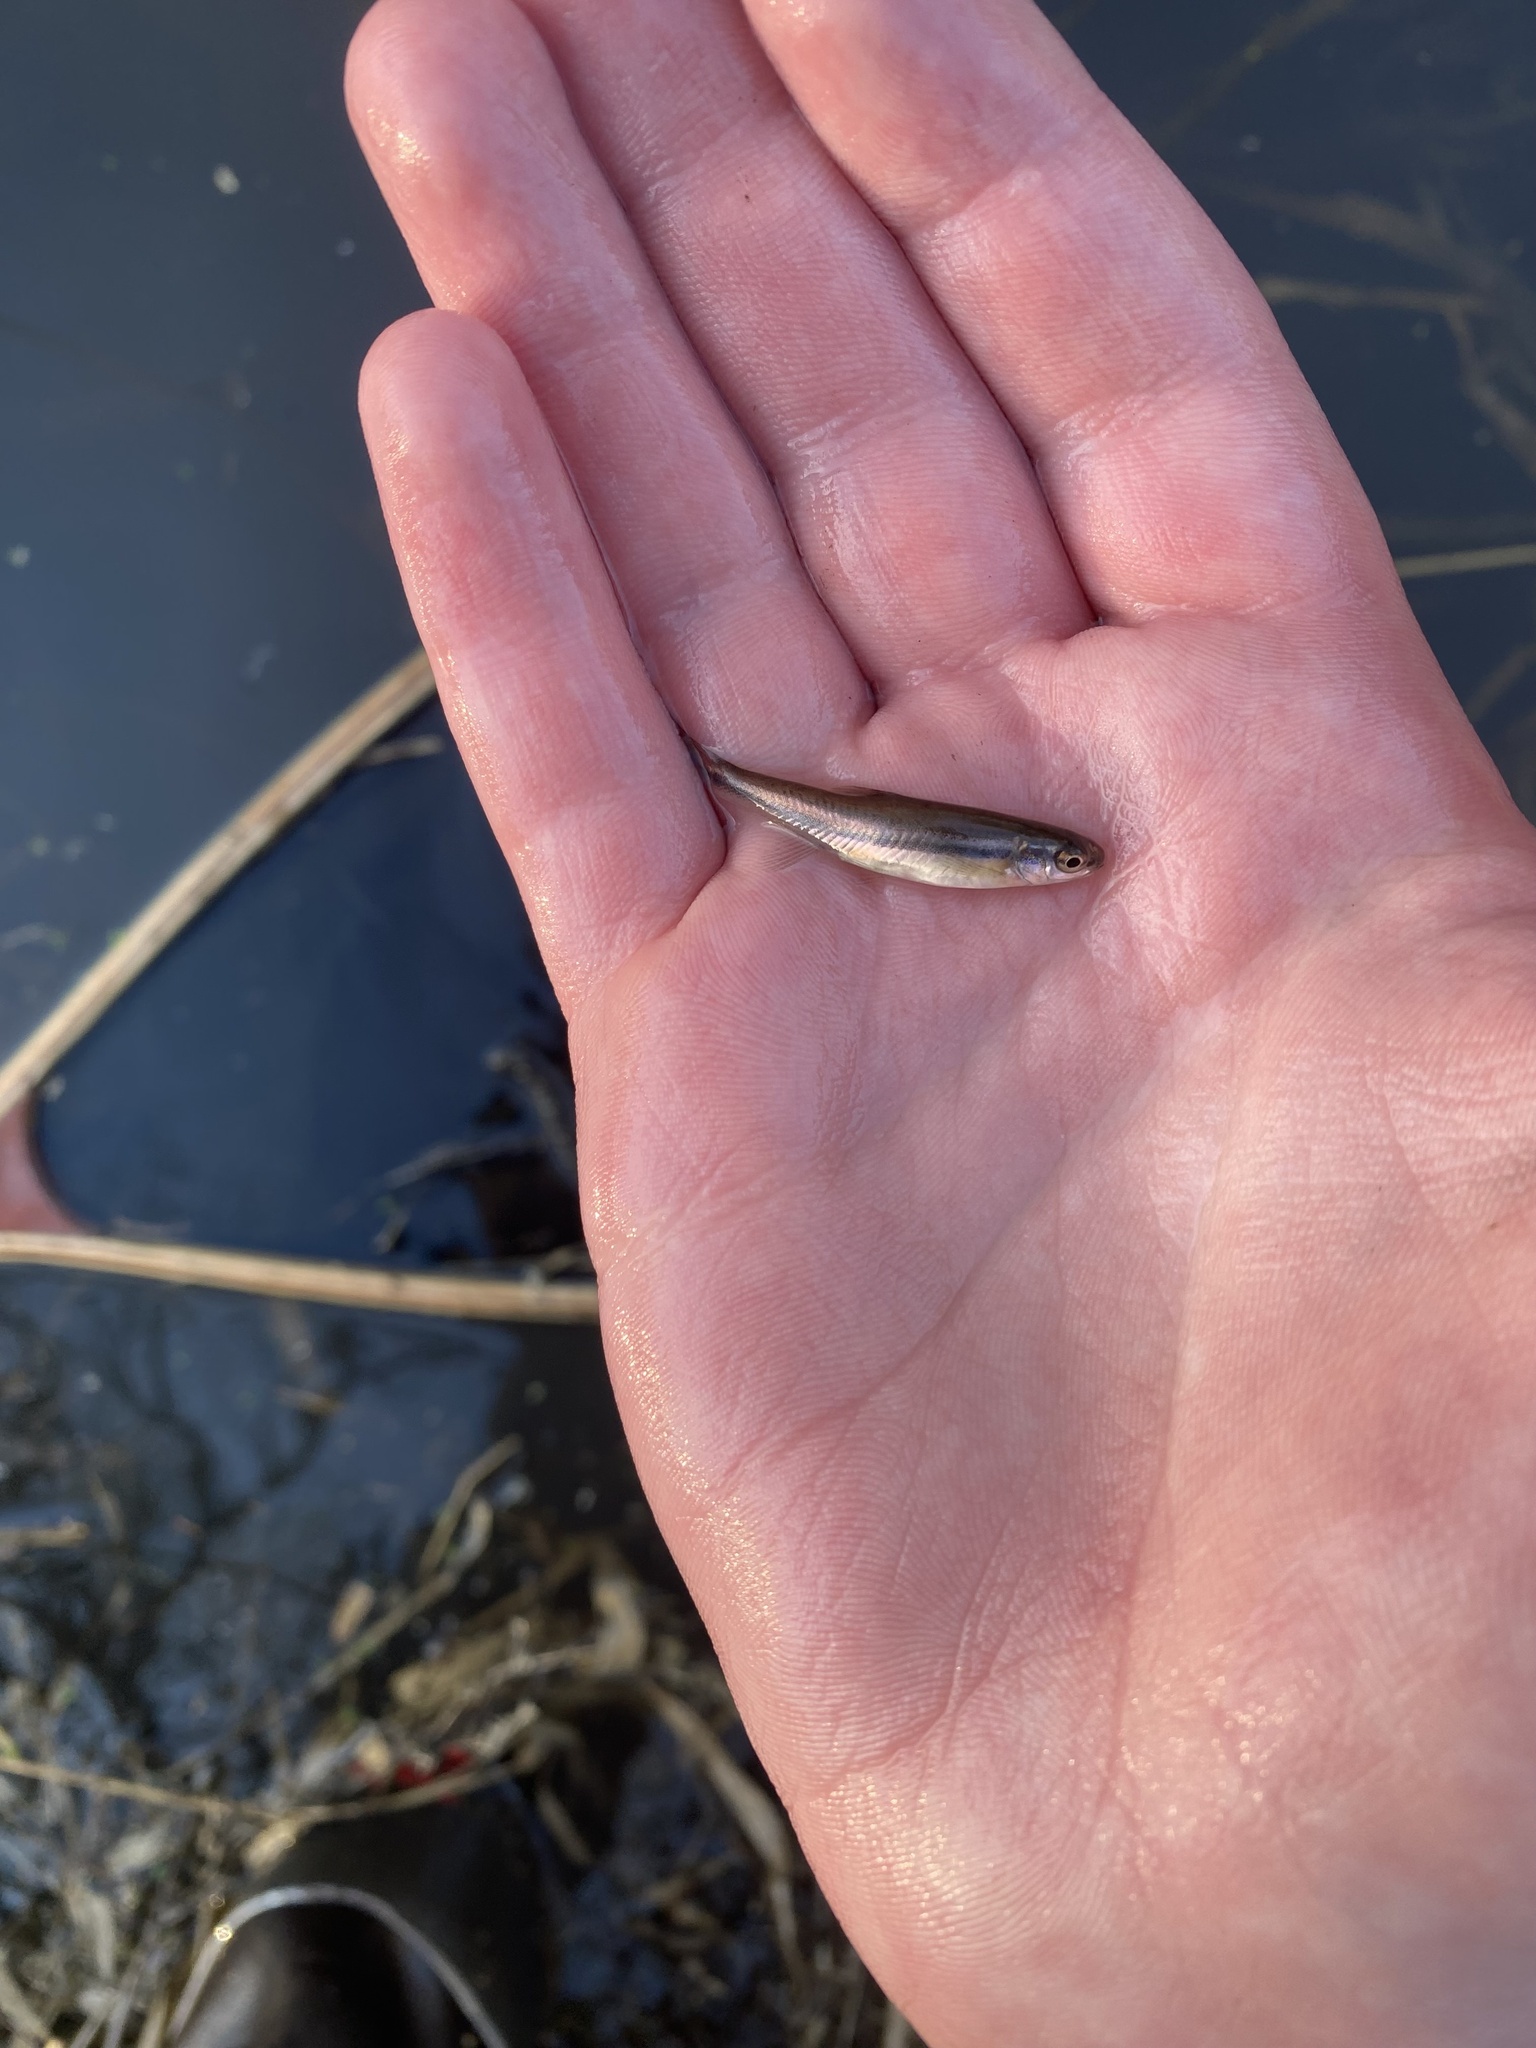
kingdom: Animalia
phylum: Chordata
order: Cypriniformes
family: Cyprinidae
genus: Chrosomus
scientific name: Chrosomus erythrogaster
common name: Southern redbelly dace
